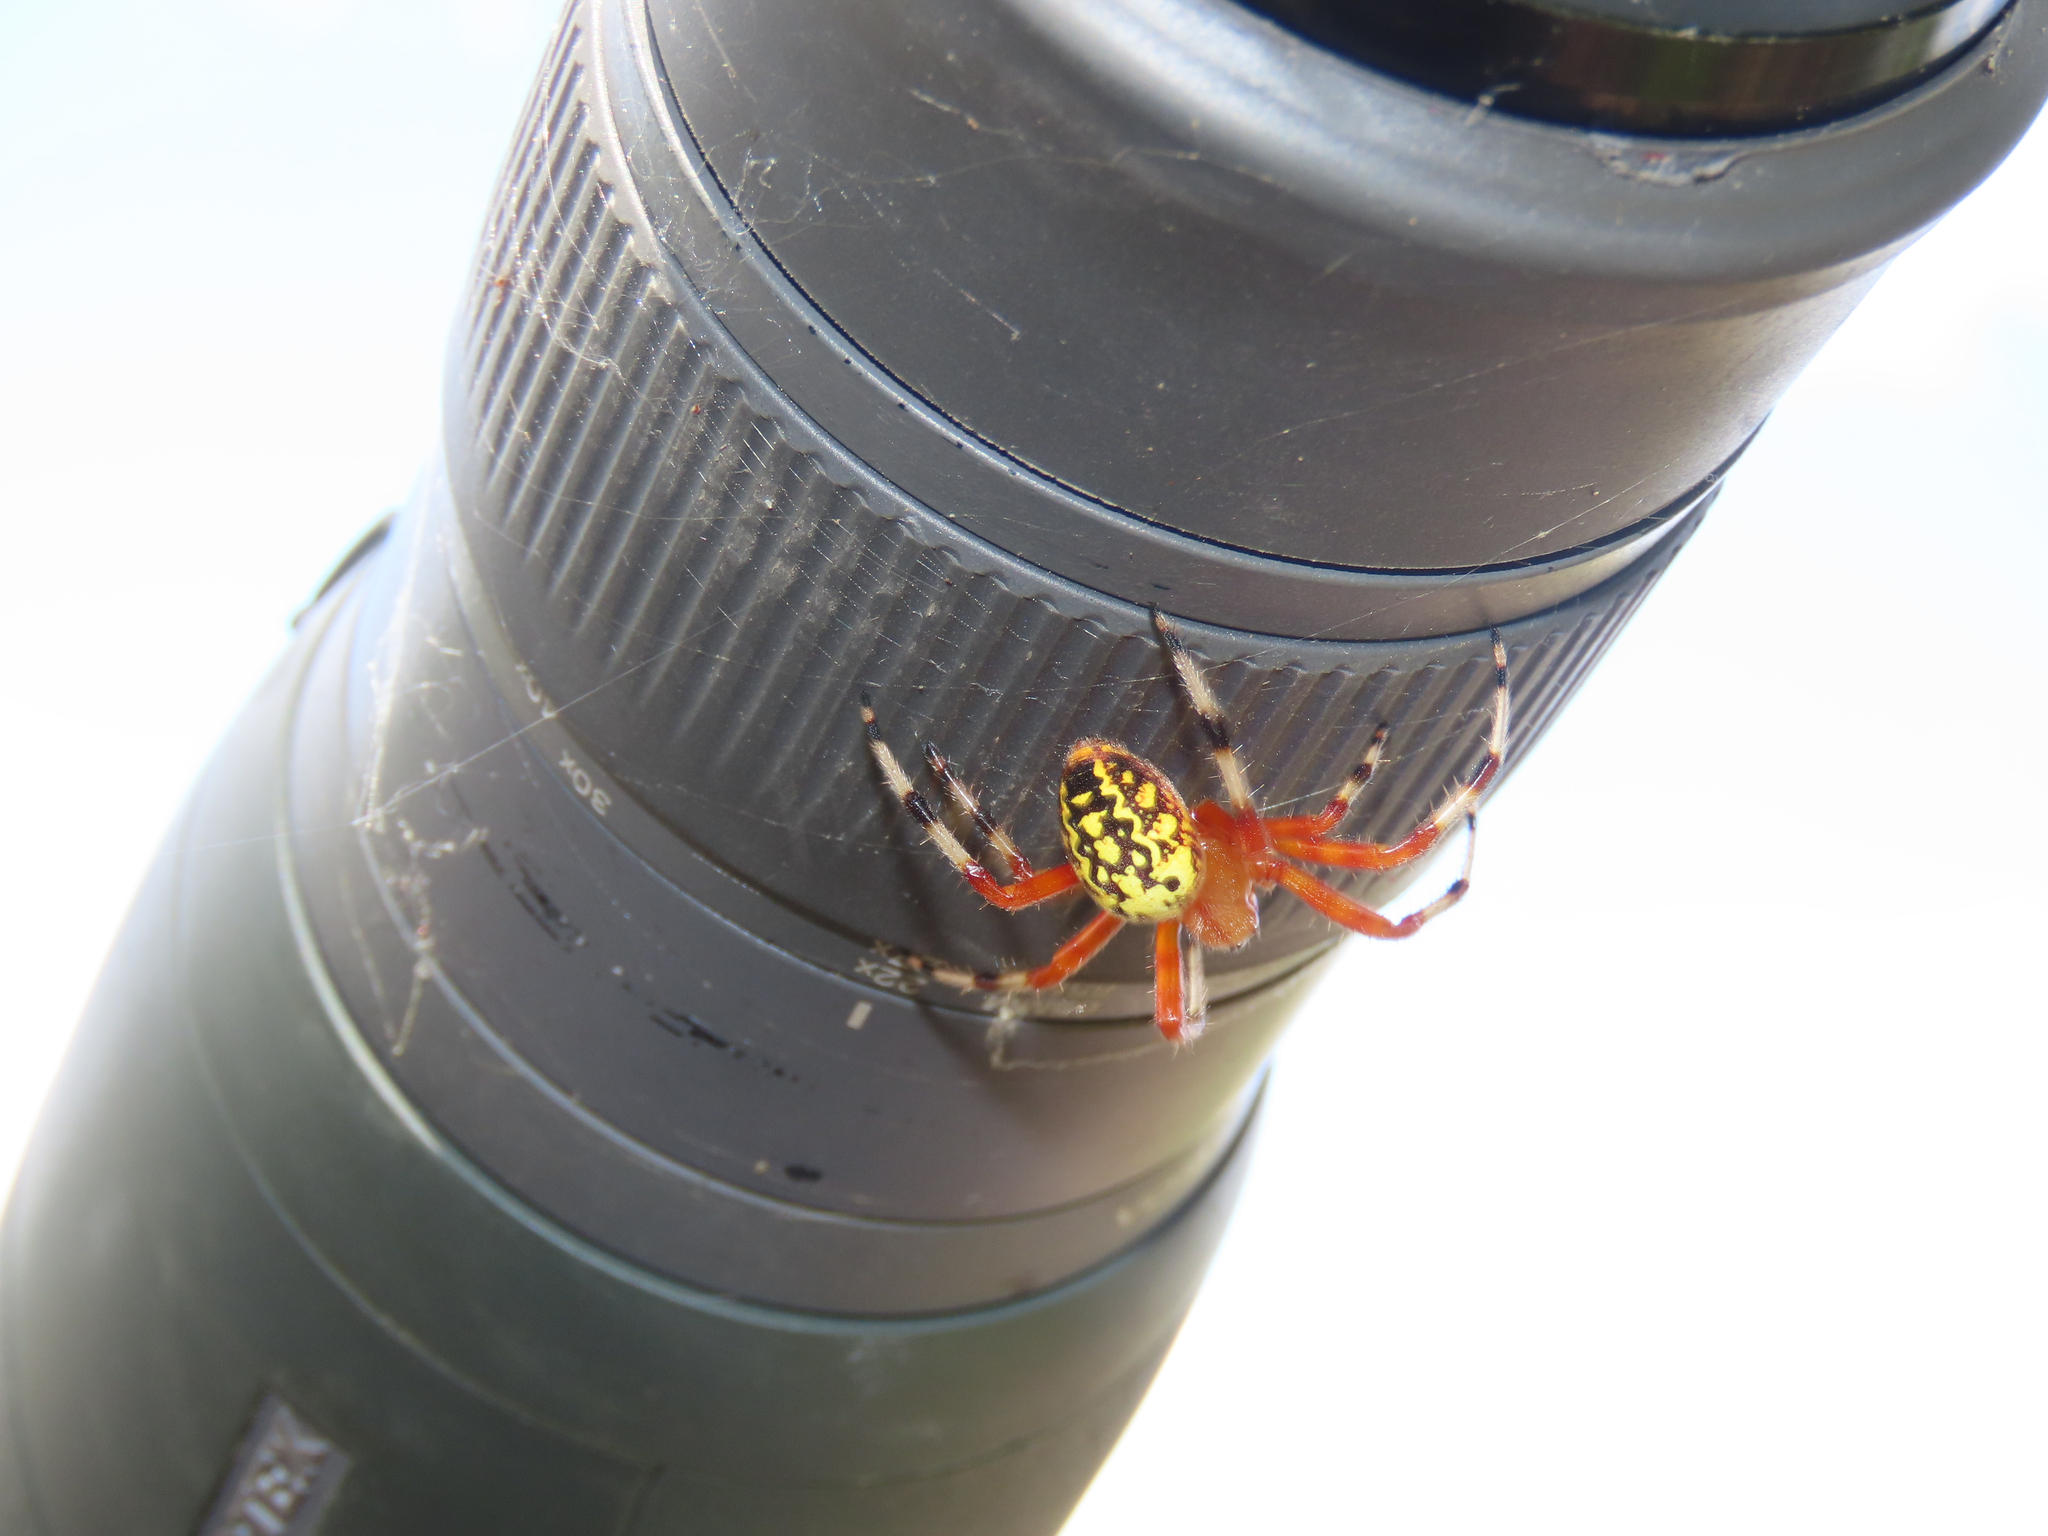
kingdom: Animalia
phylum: Arthropoda
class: Arachnida
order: Araneae
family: Araneidae
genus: Araneus
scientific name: Araneus marmoreus
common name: Marbled orbweaver
